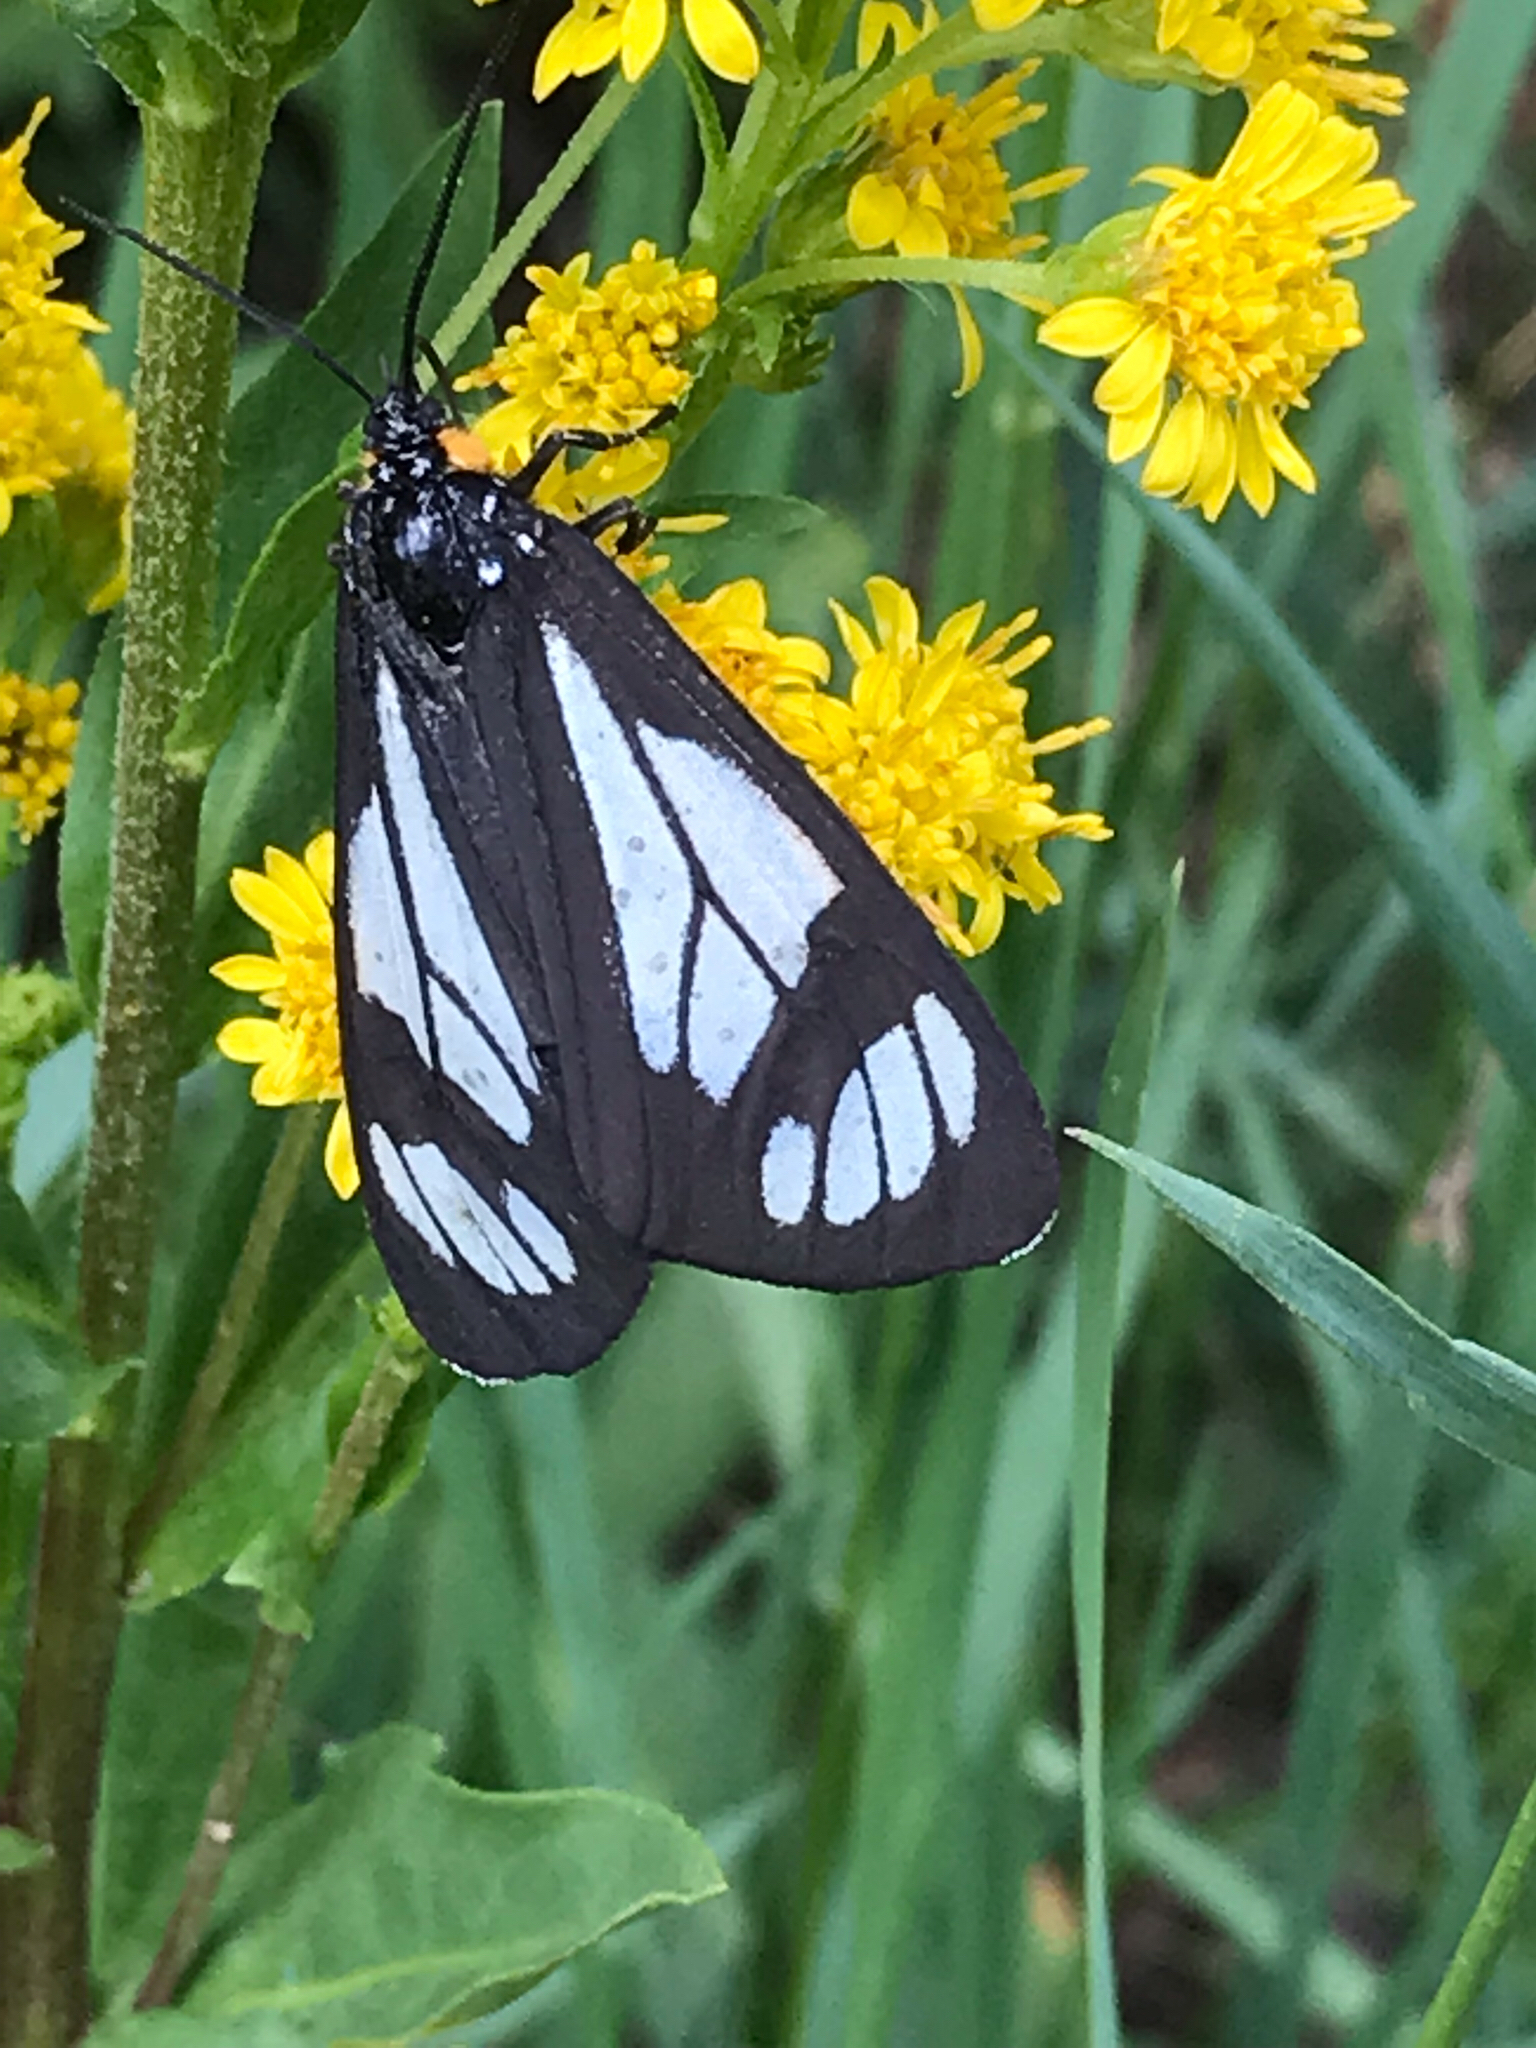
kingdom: Animalia
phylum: Arthropoda
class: Insecta
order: Lepidoptera
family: Erebidae
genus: Gnophaela
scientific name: Gnophaela vermiculata
